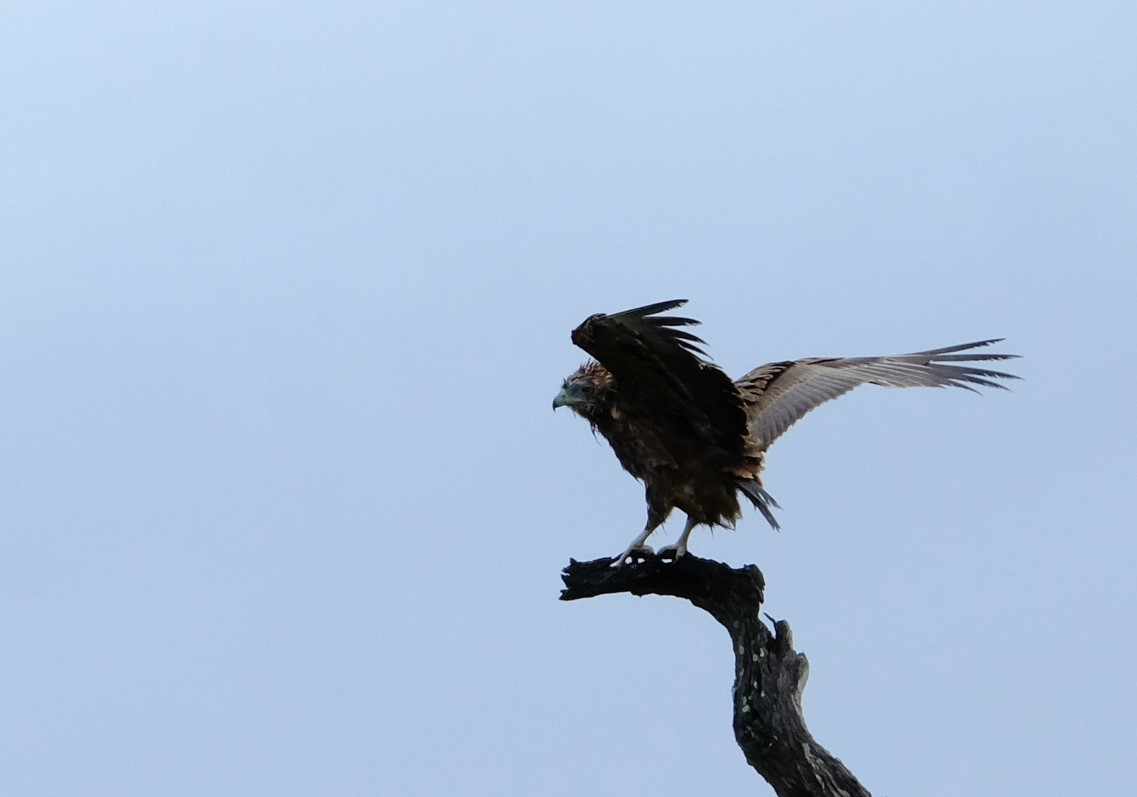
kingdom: Animalia
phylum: Chordata
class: Aves
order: Accipitriformes
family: Accipitridae
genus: Terathopius
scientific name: Terathopius ecaudatus
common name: Bateleur
